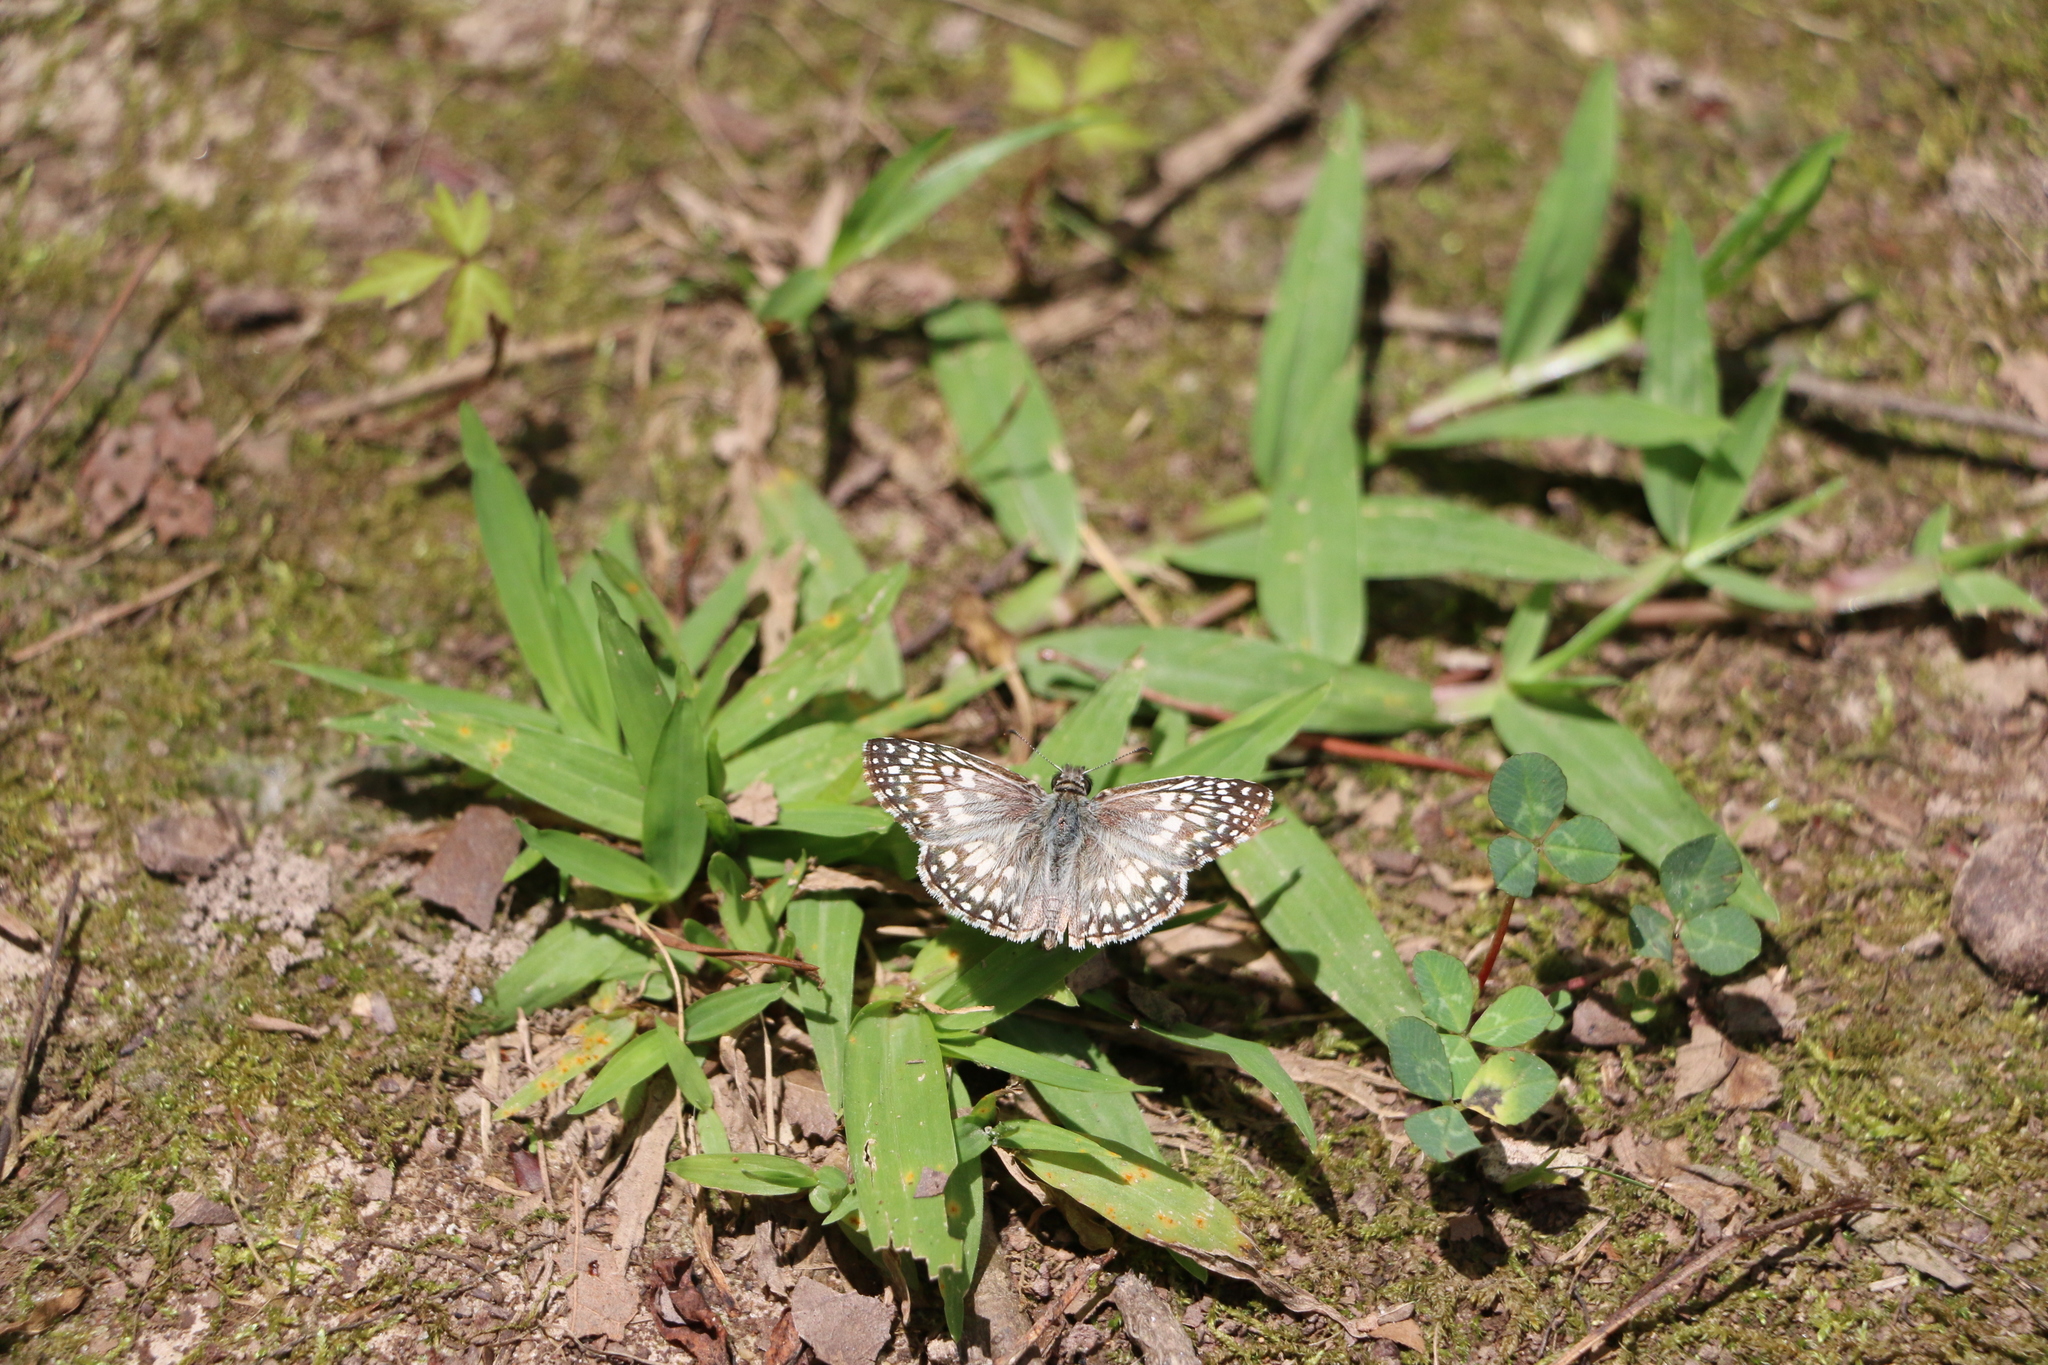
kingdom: Animalia
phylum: Arthropoda
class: Insecta
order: Lepidoptera
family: Hesperiidae
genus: Pyrgus
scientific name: Pyrgus oileus
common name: Tropical checkered-skipper
